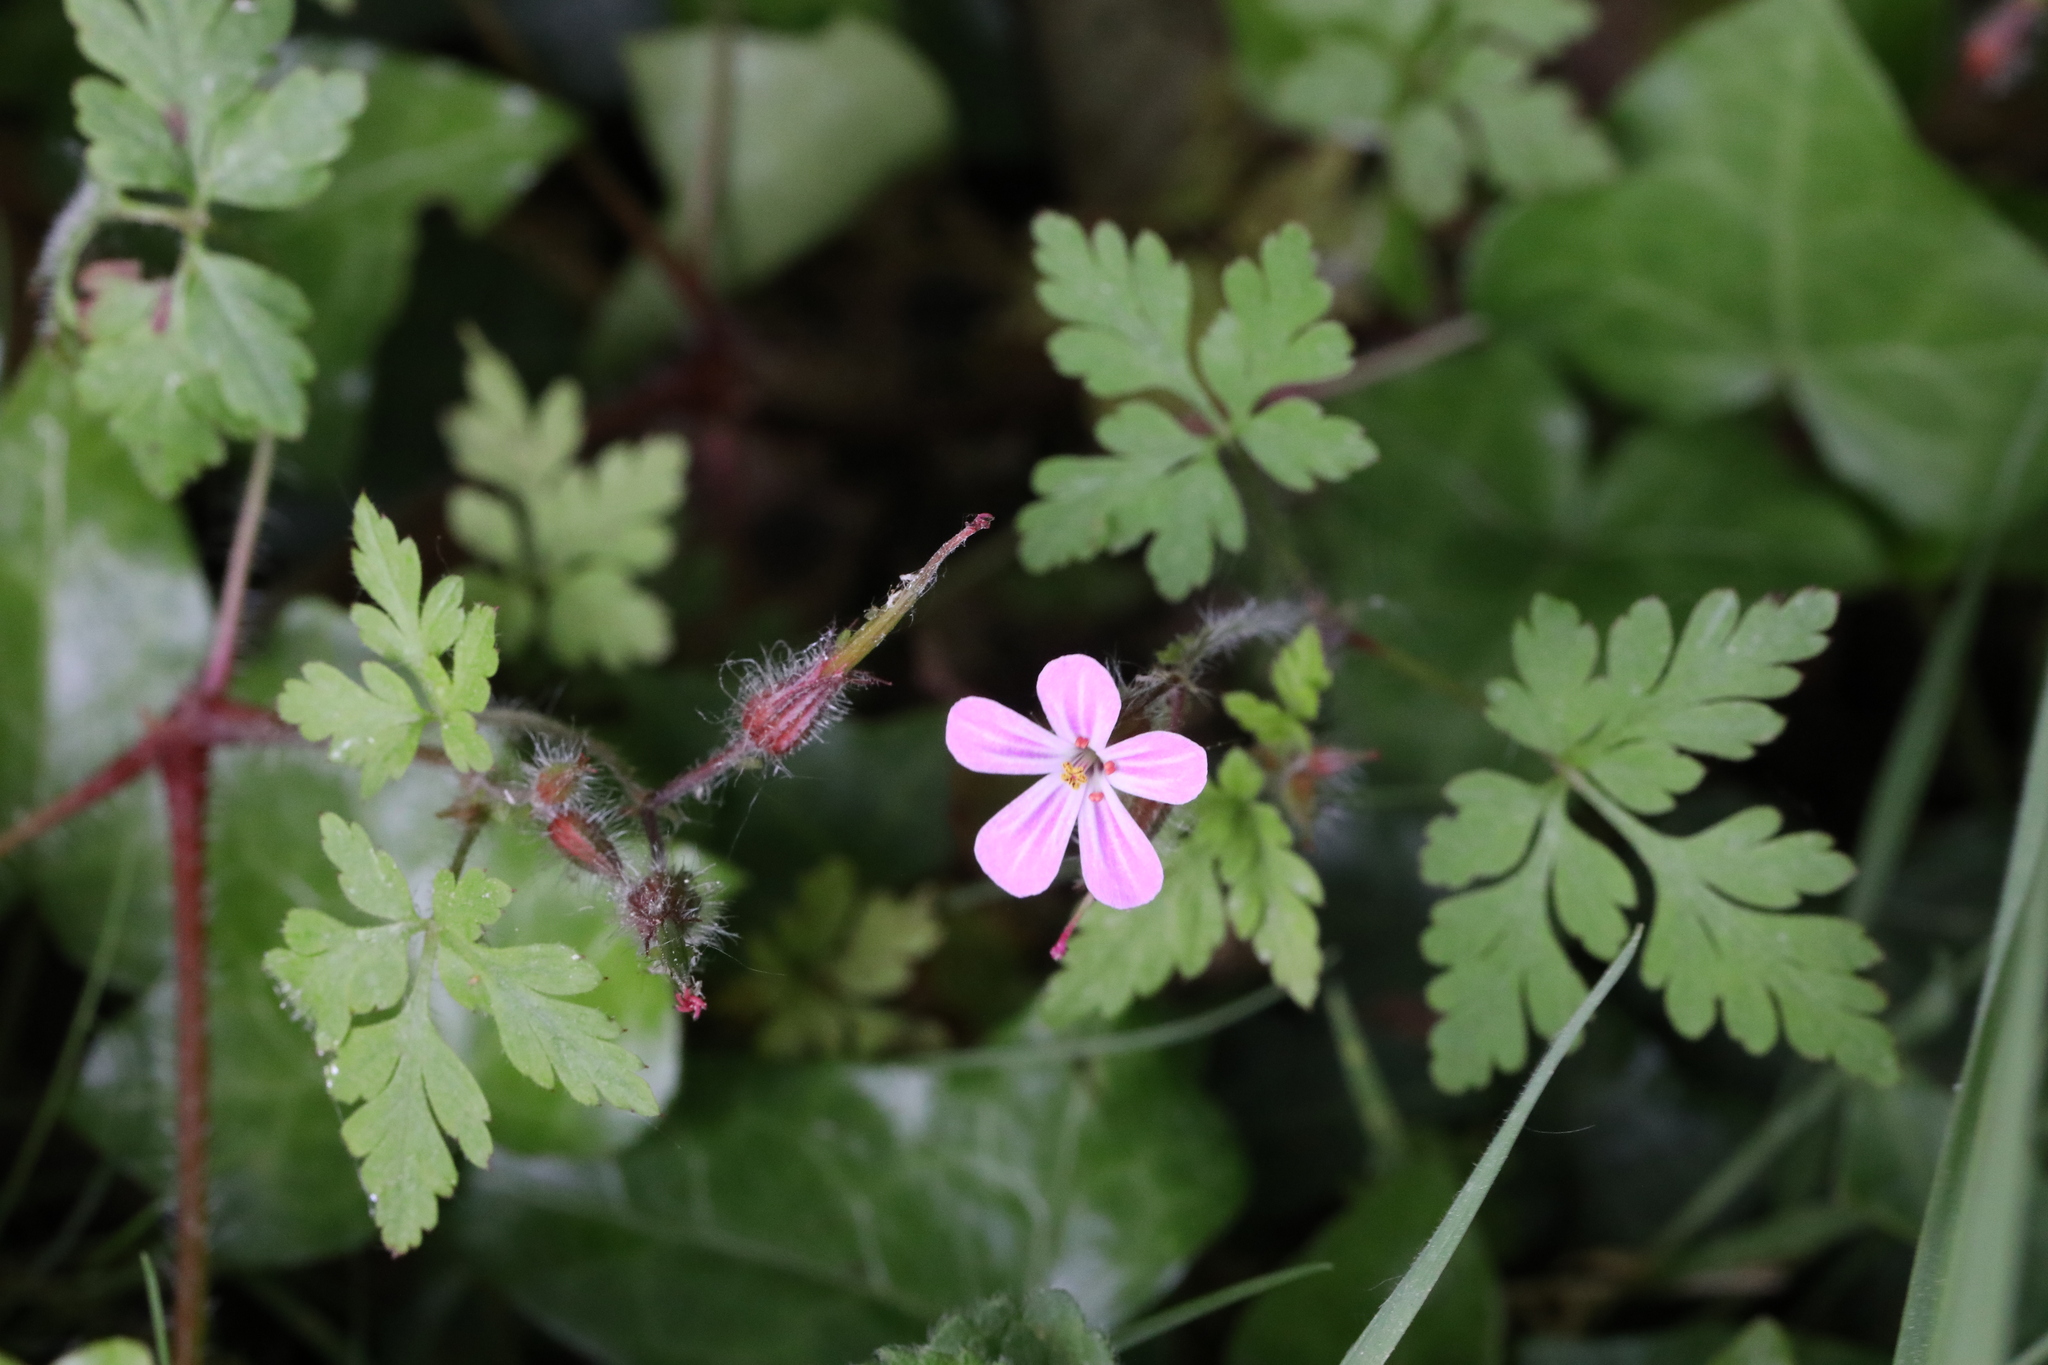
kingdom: Plantae
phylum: Tracheophyta
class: Magnoliopsida
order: Geraniales
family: Geraniaceae
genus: Geranium
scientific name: Geranium robertianum
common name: Herb-robert
